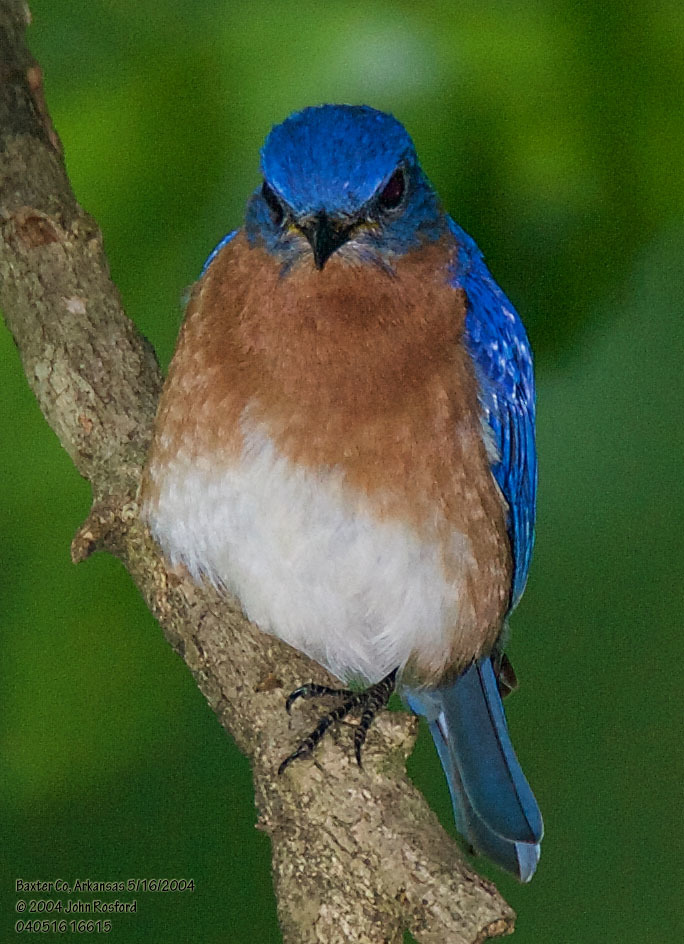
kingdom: Animalia
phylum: Chordata
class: Aves
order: Passeriformes
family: Turdidae
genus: Sialia
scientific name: Sialia sialis
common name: Eastern bluebird
